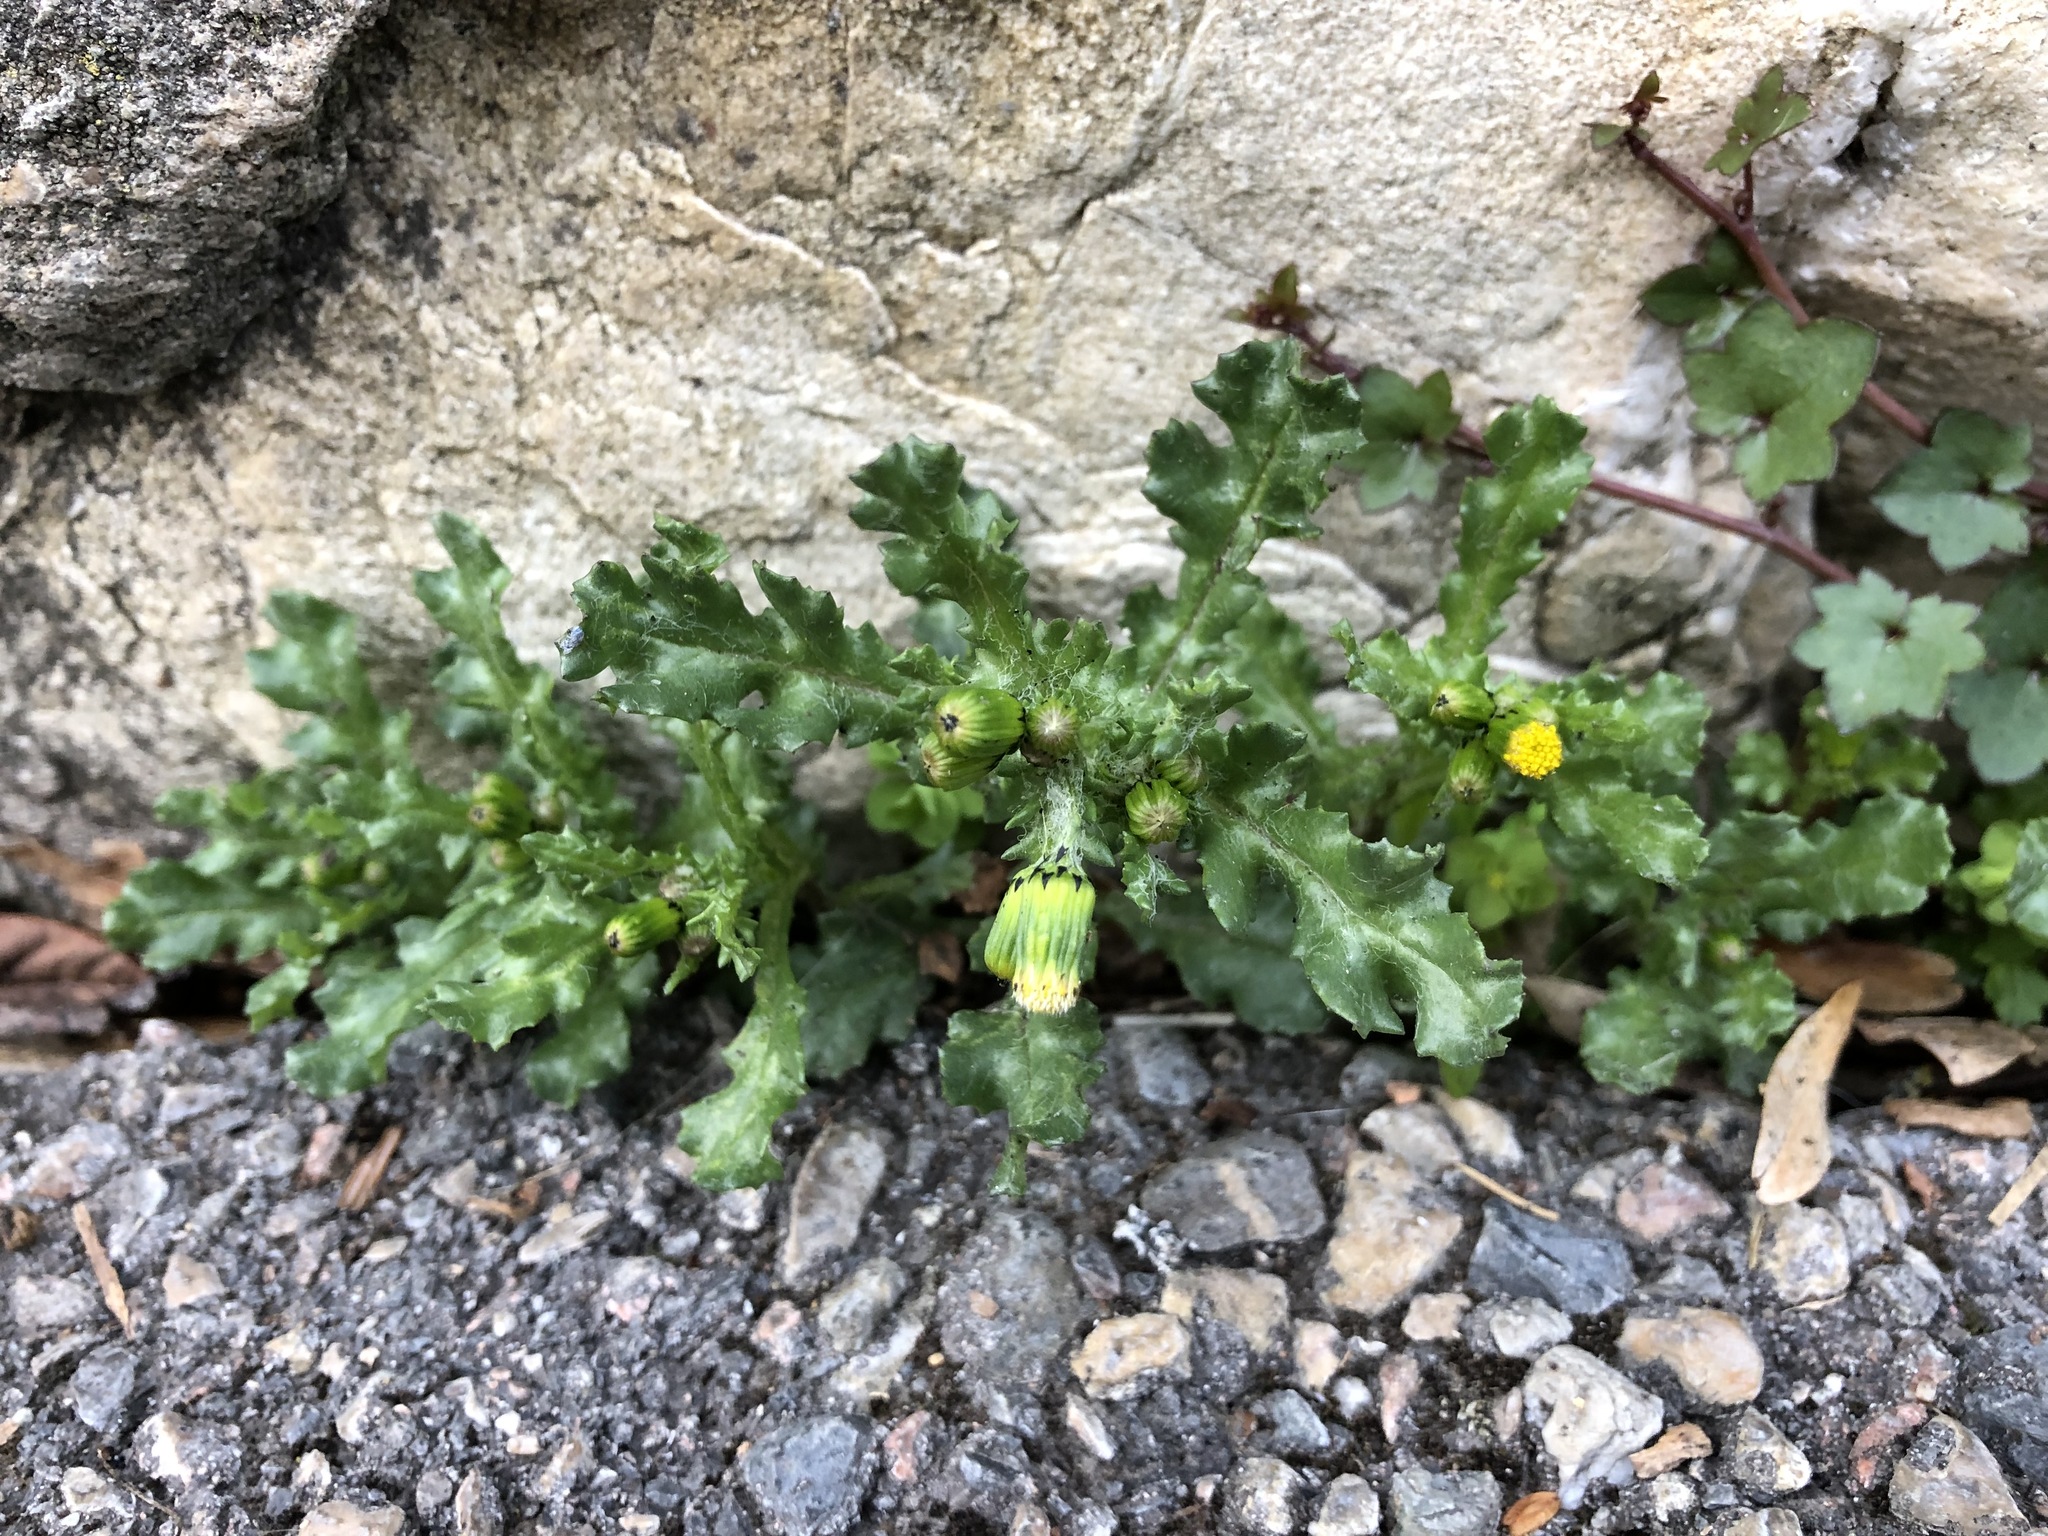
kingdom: Plantae
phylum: Tracheophyta
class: Magnoliopsida
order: Asterales
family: Asteraceae
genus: Senecio
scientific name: Senecio vulgaris
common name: Old-man-in-the-spring
